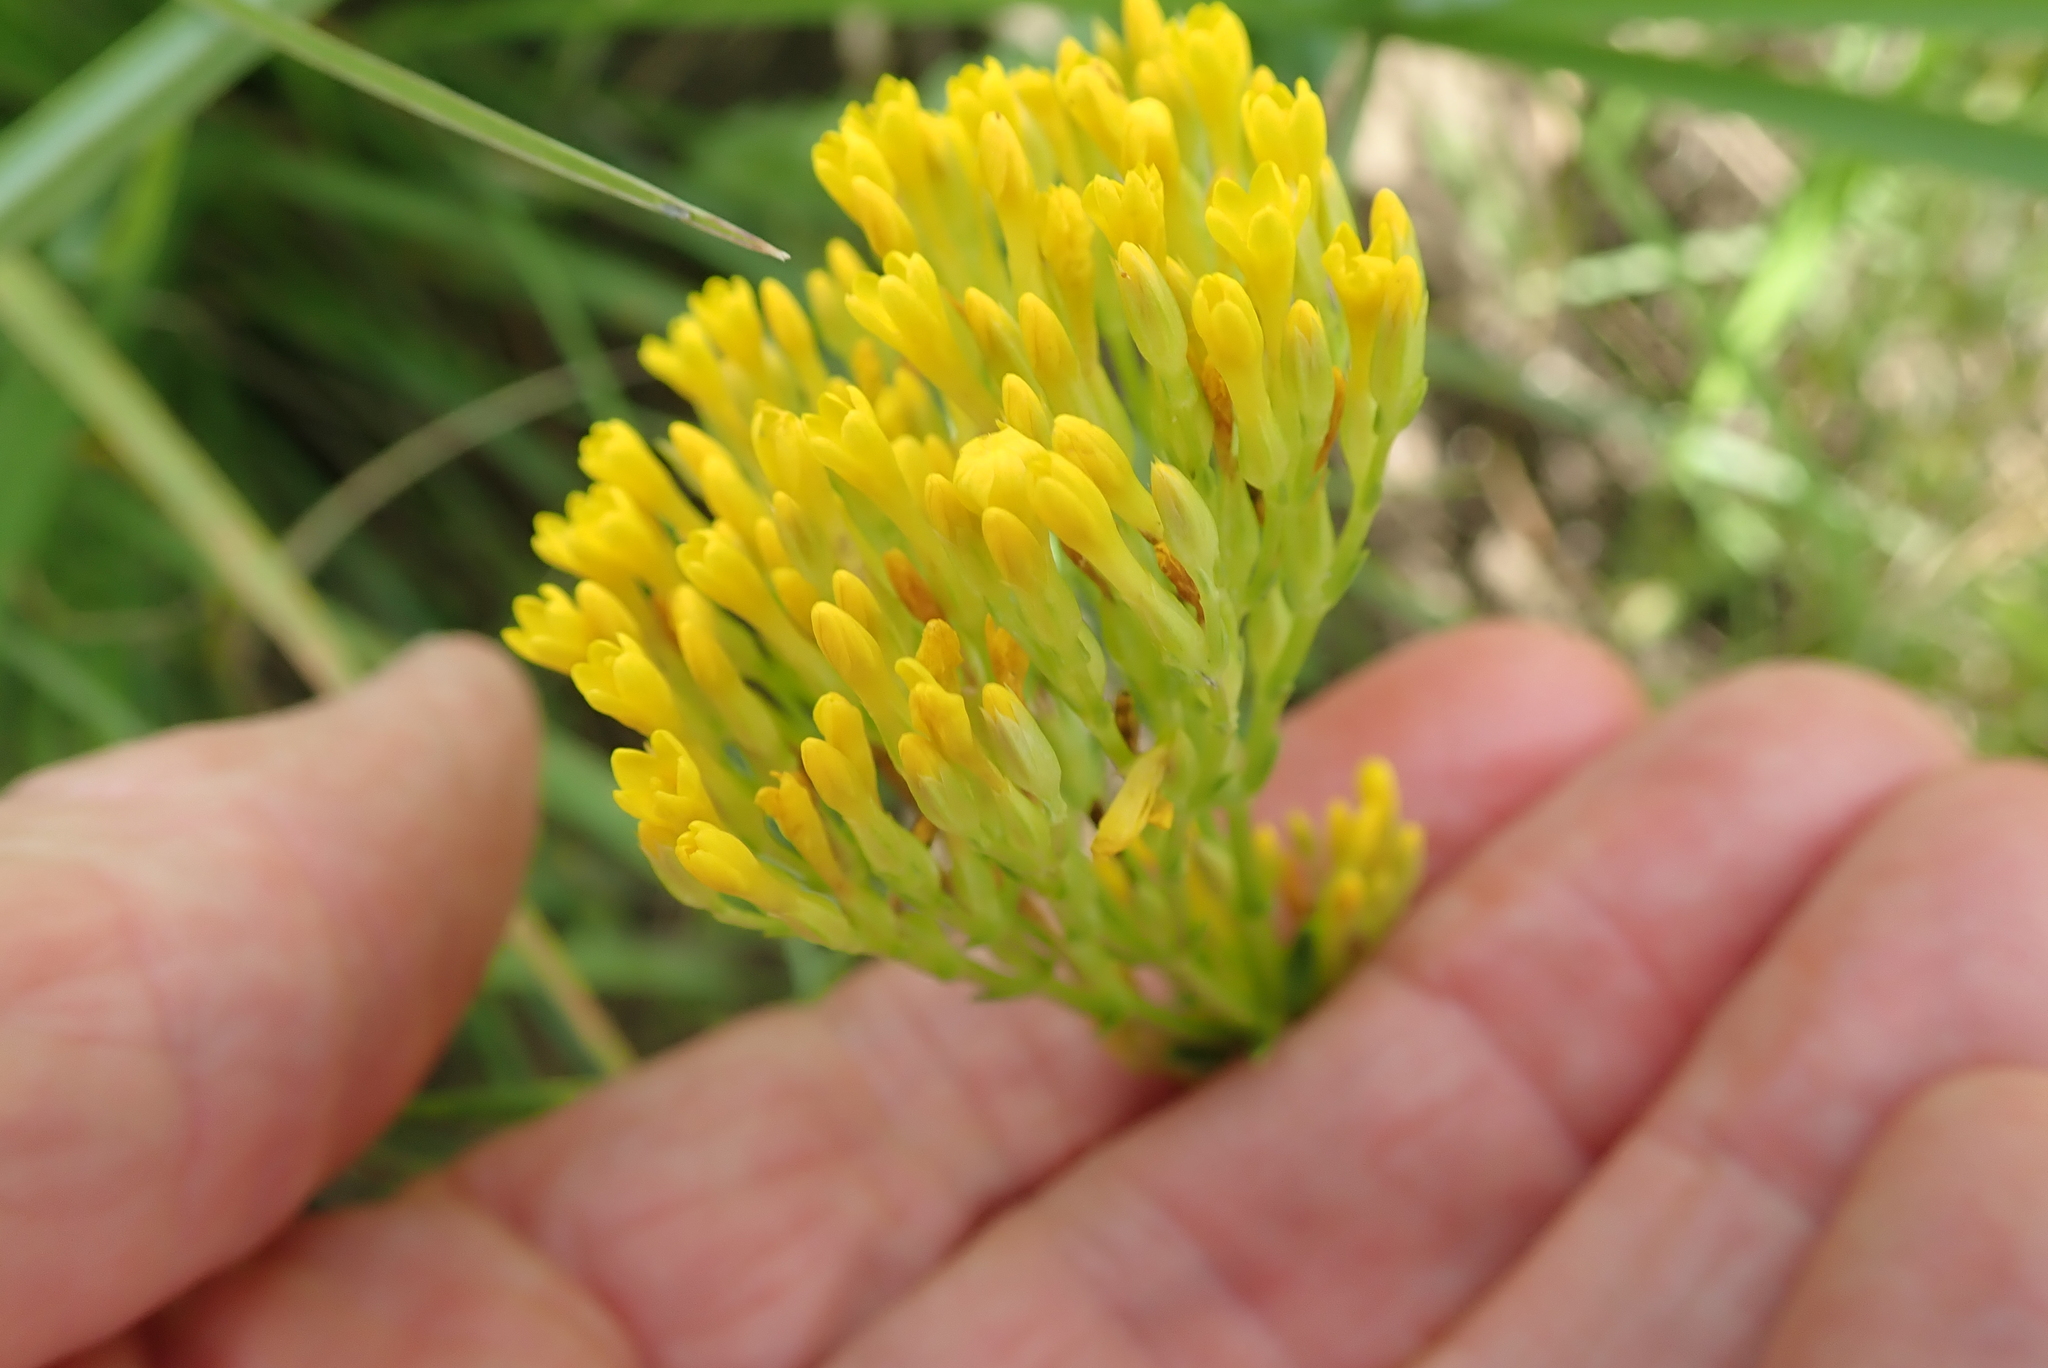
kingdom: Plantae
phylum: Tracheophyta
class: Magnoliopsida
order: Gentianales
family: Gentianaceae
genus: Sebaea
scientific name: Sebaea sedoides
